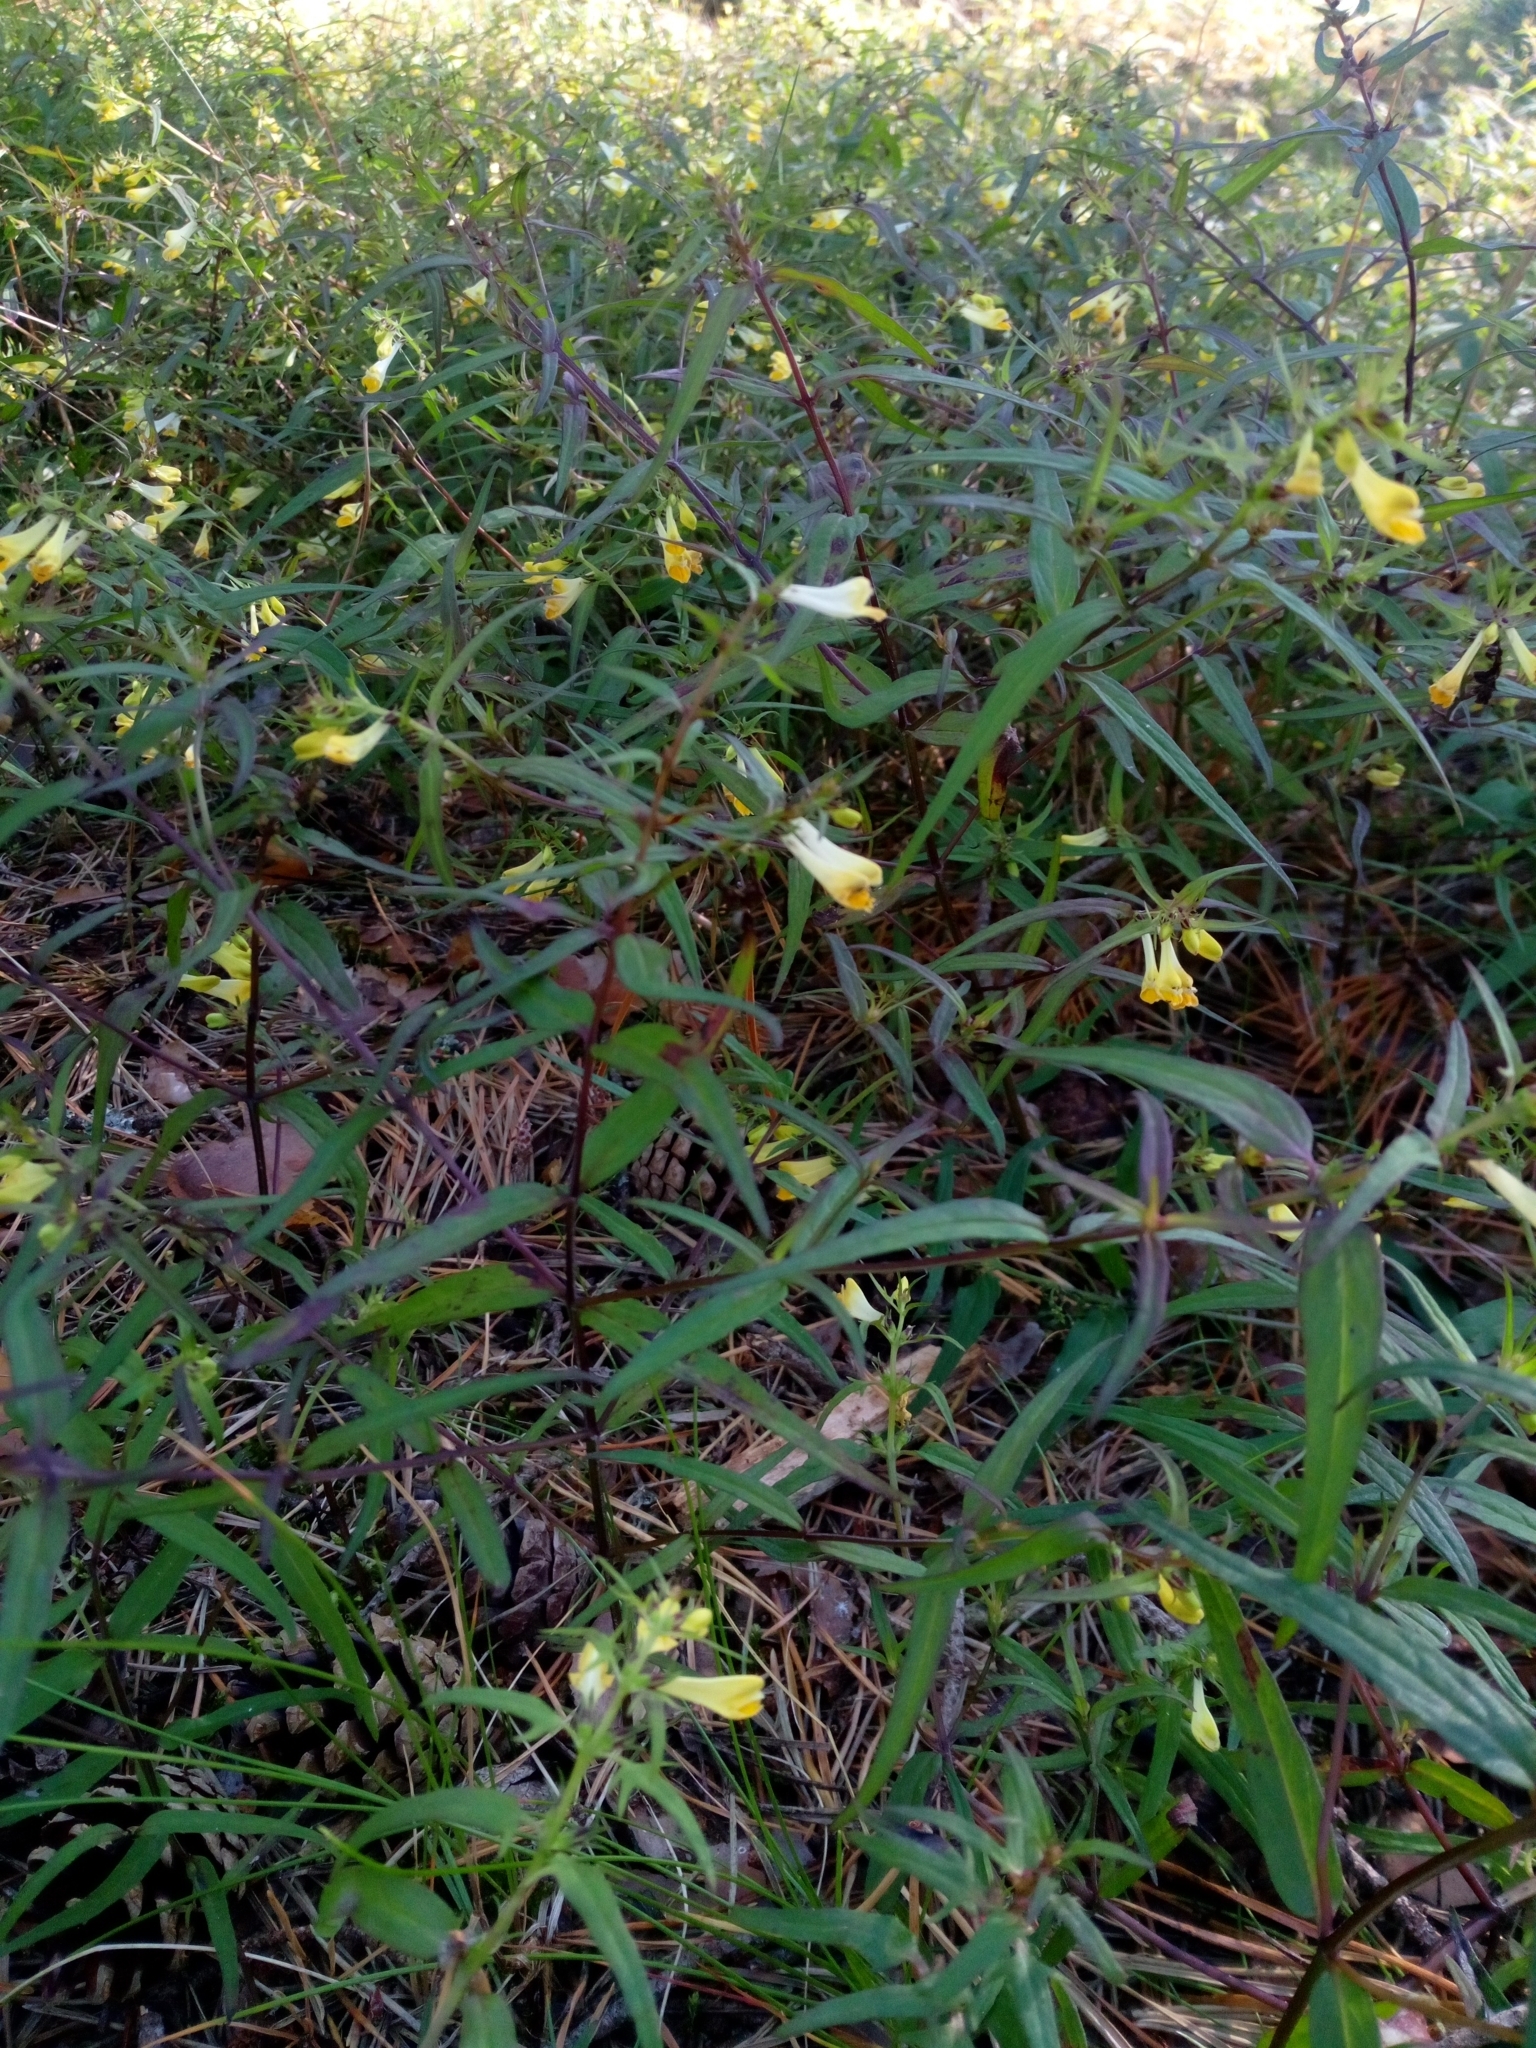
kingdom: Plantae
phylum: Tracheophyta
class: Magnoliopsida
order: Lamiales
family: Orobanchaceae
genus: Melampyrum
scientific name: Melampyrum pratense
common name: Common cow-wheat
